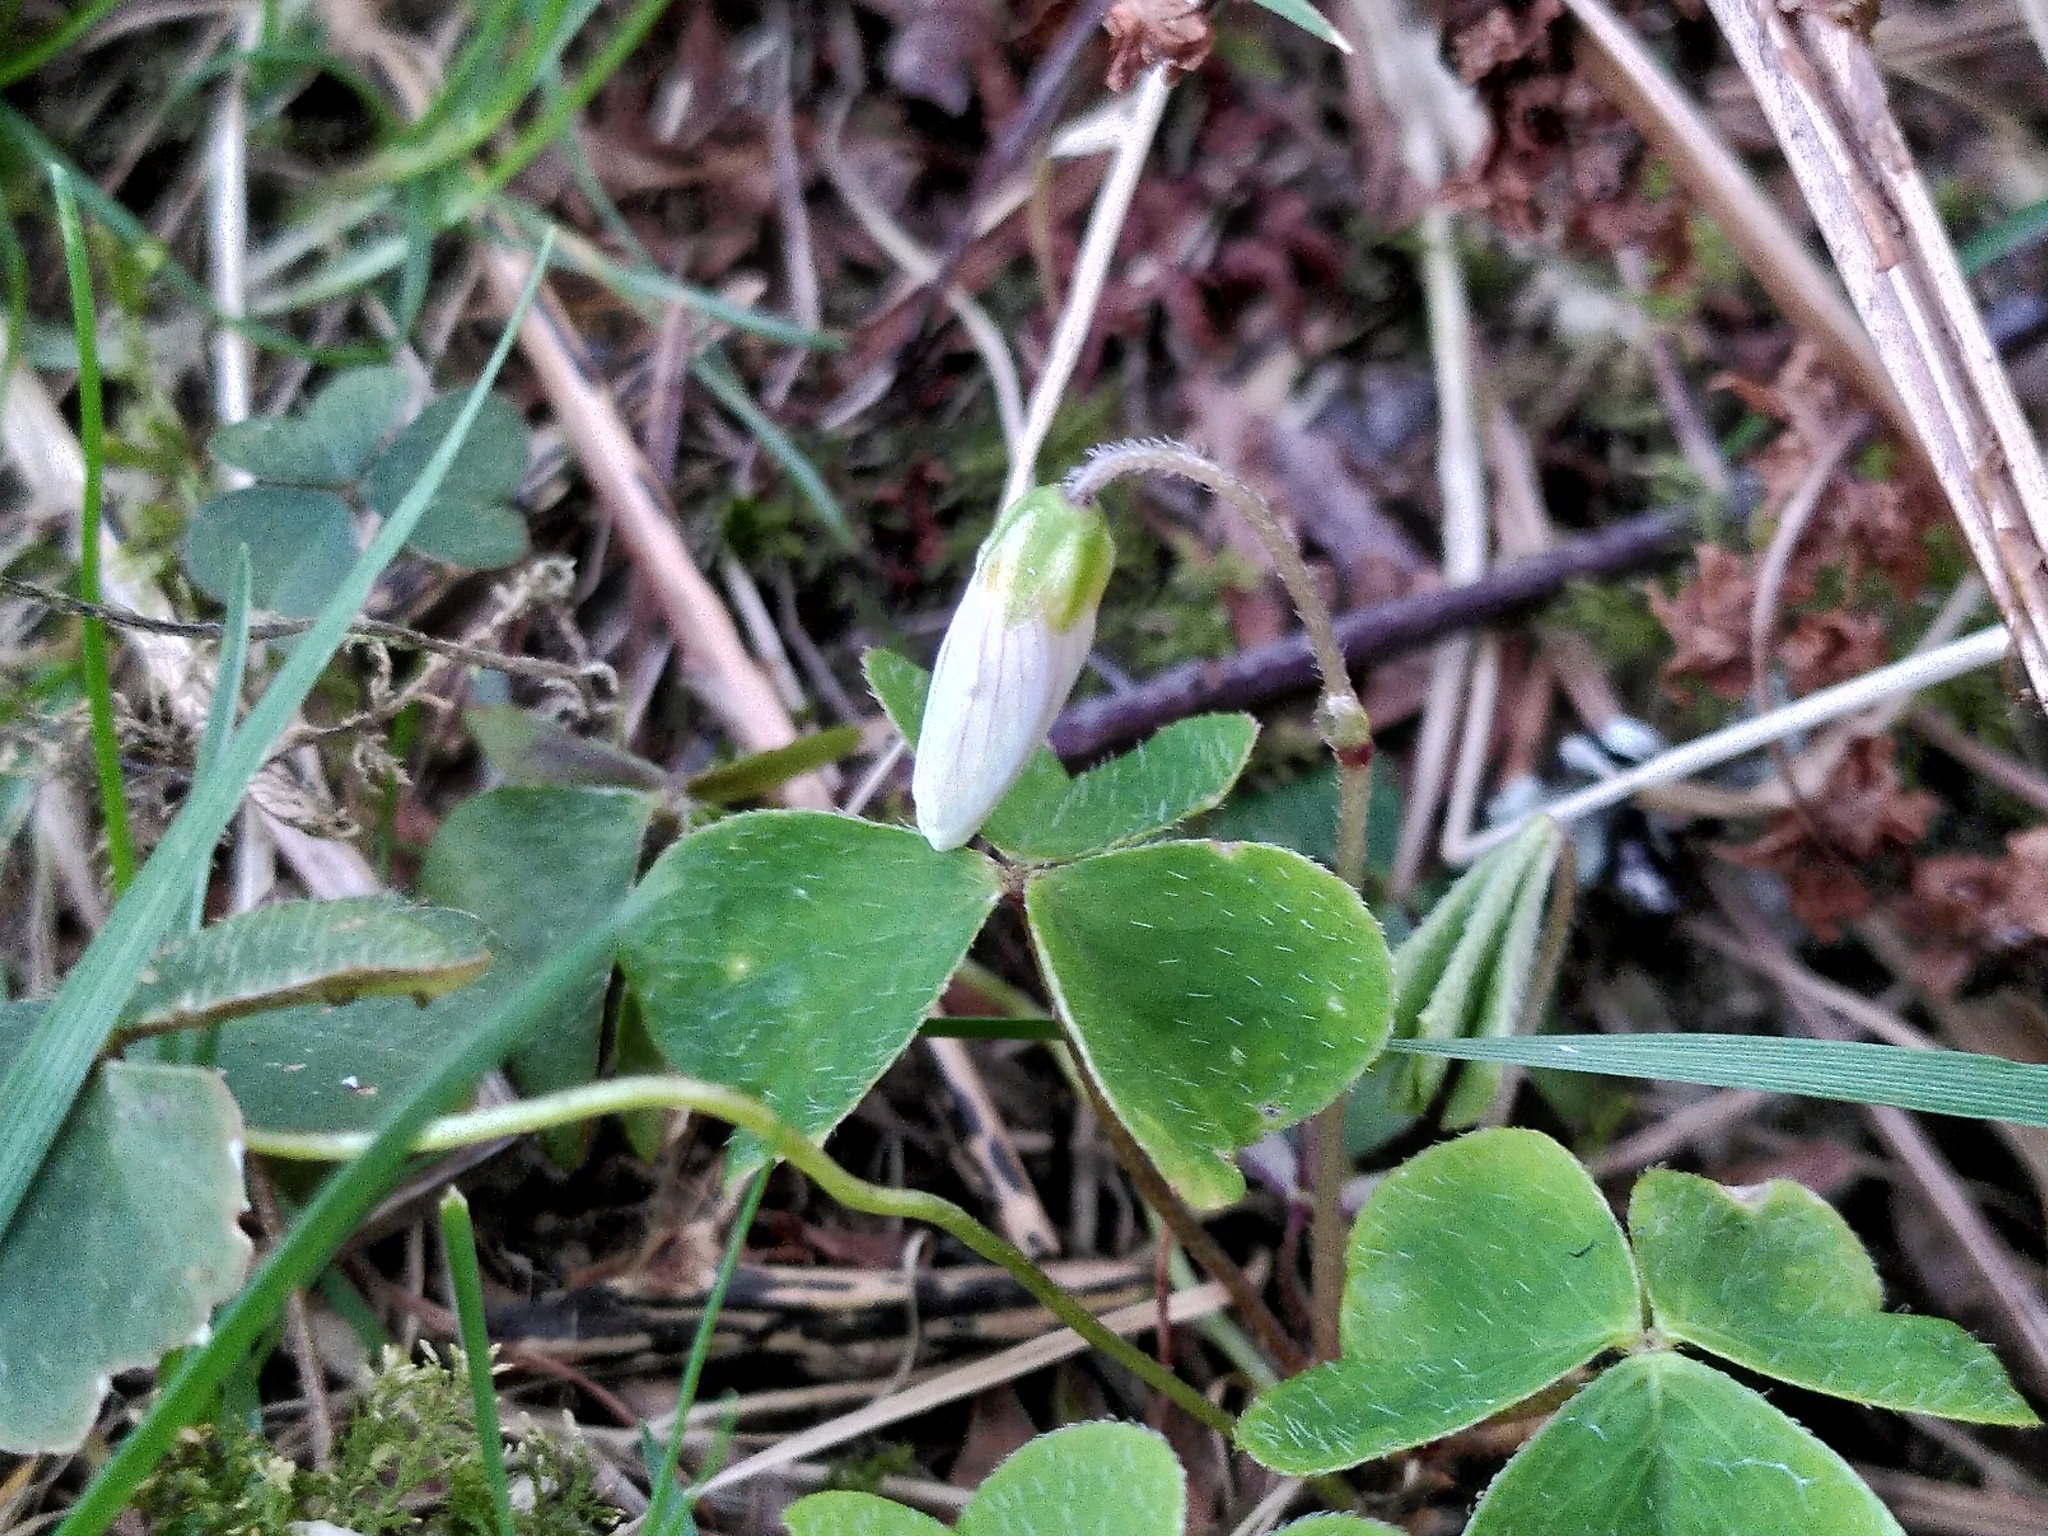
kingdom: Plantae
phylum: Tracheophyta
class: Magnoliopsida
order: Oxalidales
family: Oxalidaceae
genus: Oxalis
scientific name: Oxalis acetosella
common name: Wood-sorrel
